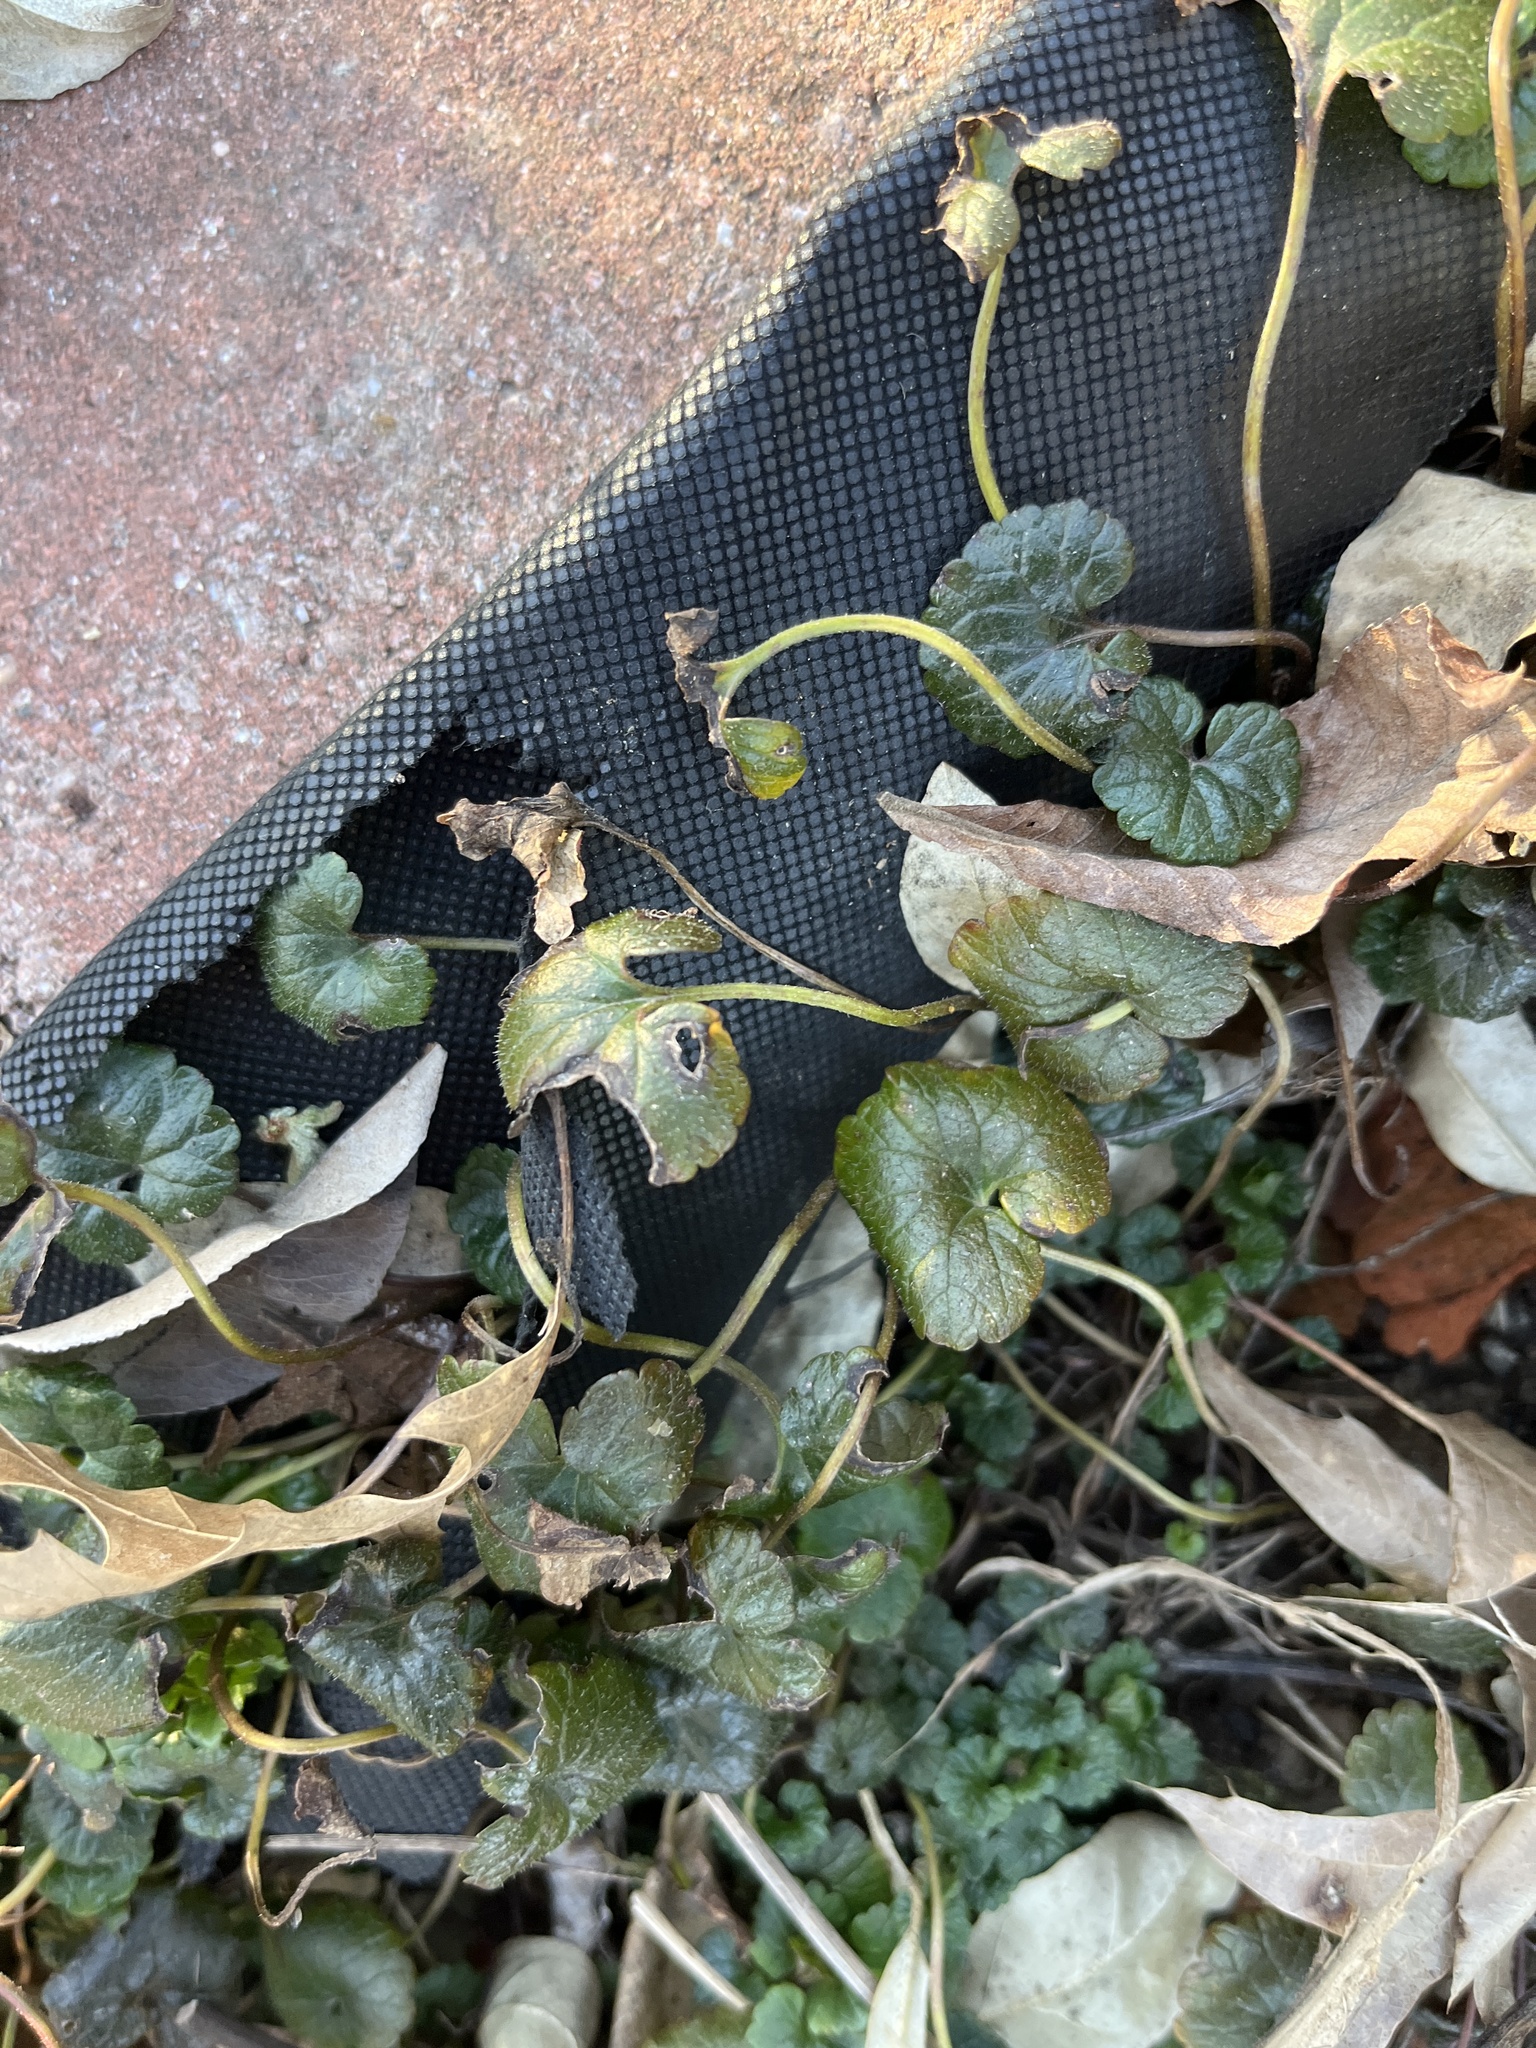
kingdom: Plantae
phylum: Tracheophyta
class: Magnoliopsida
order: Lamiales
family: Lamiaceae
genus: Glechoma
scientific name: Glechoma hederacea
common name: Ground ivy
